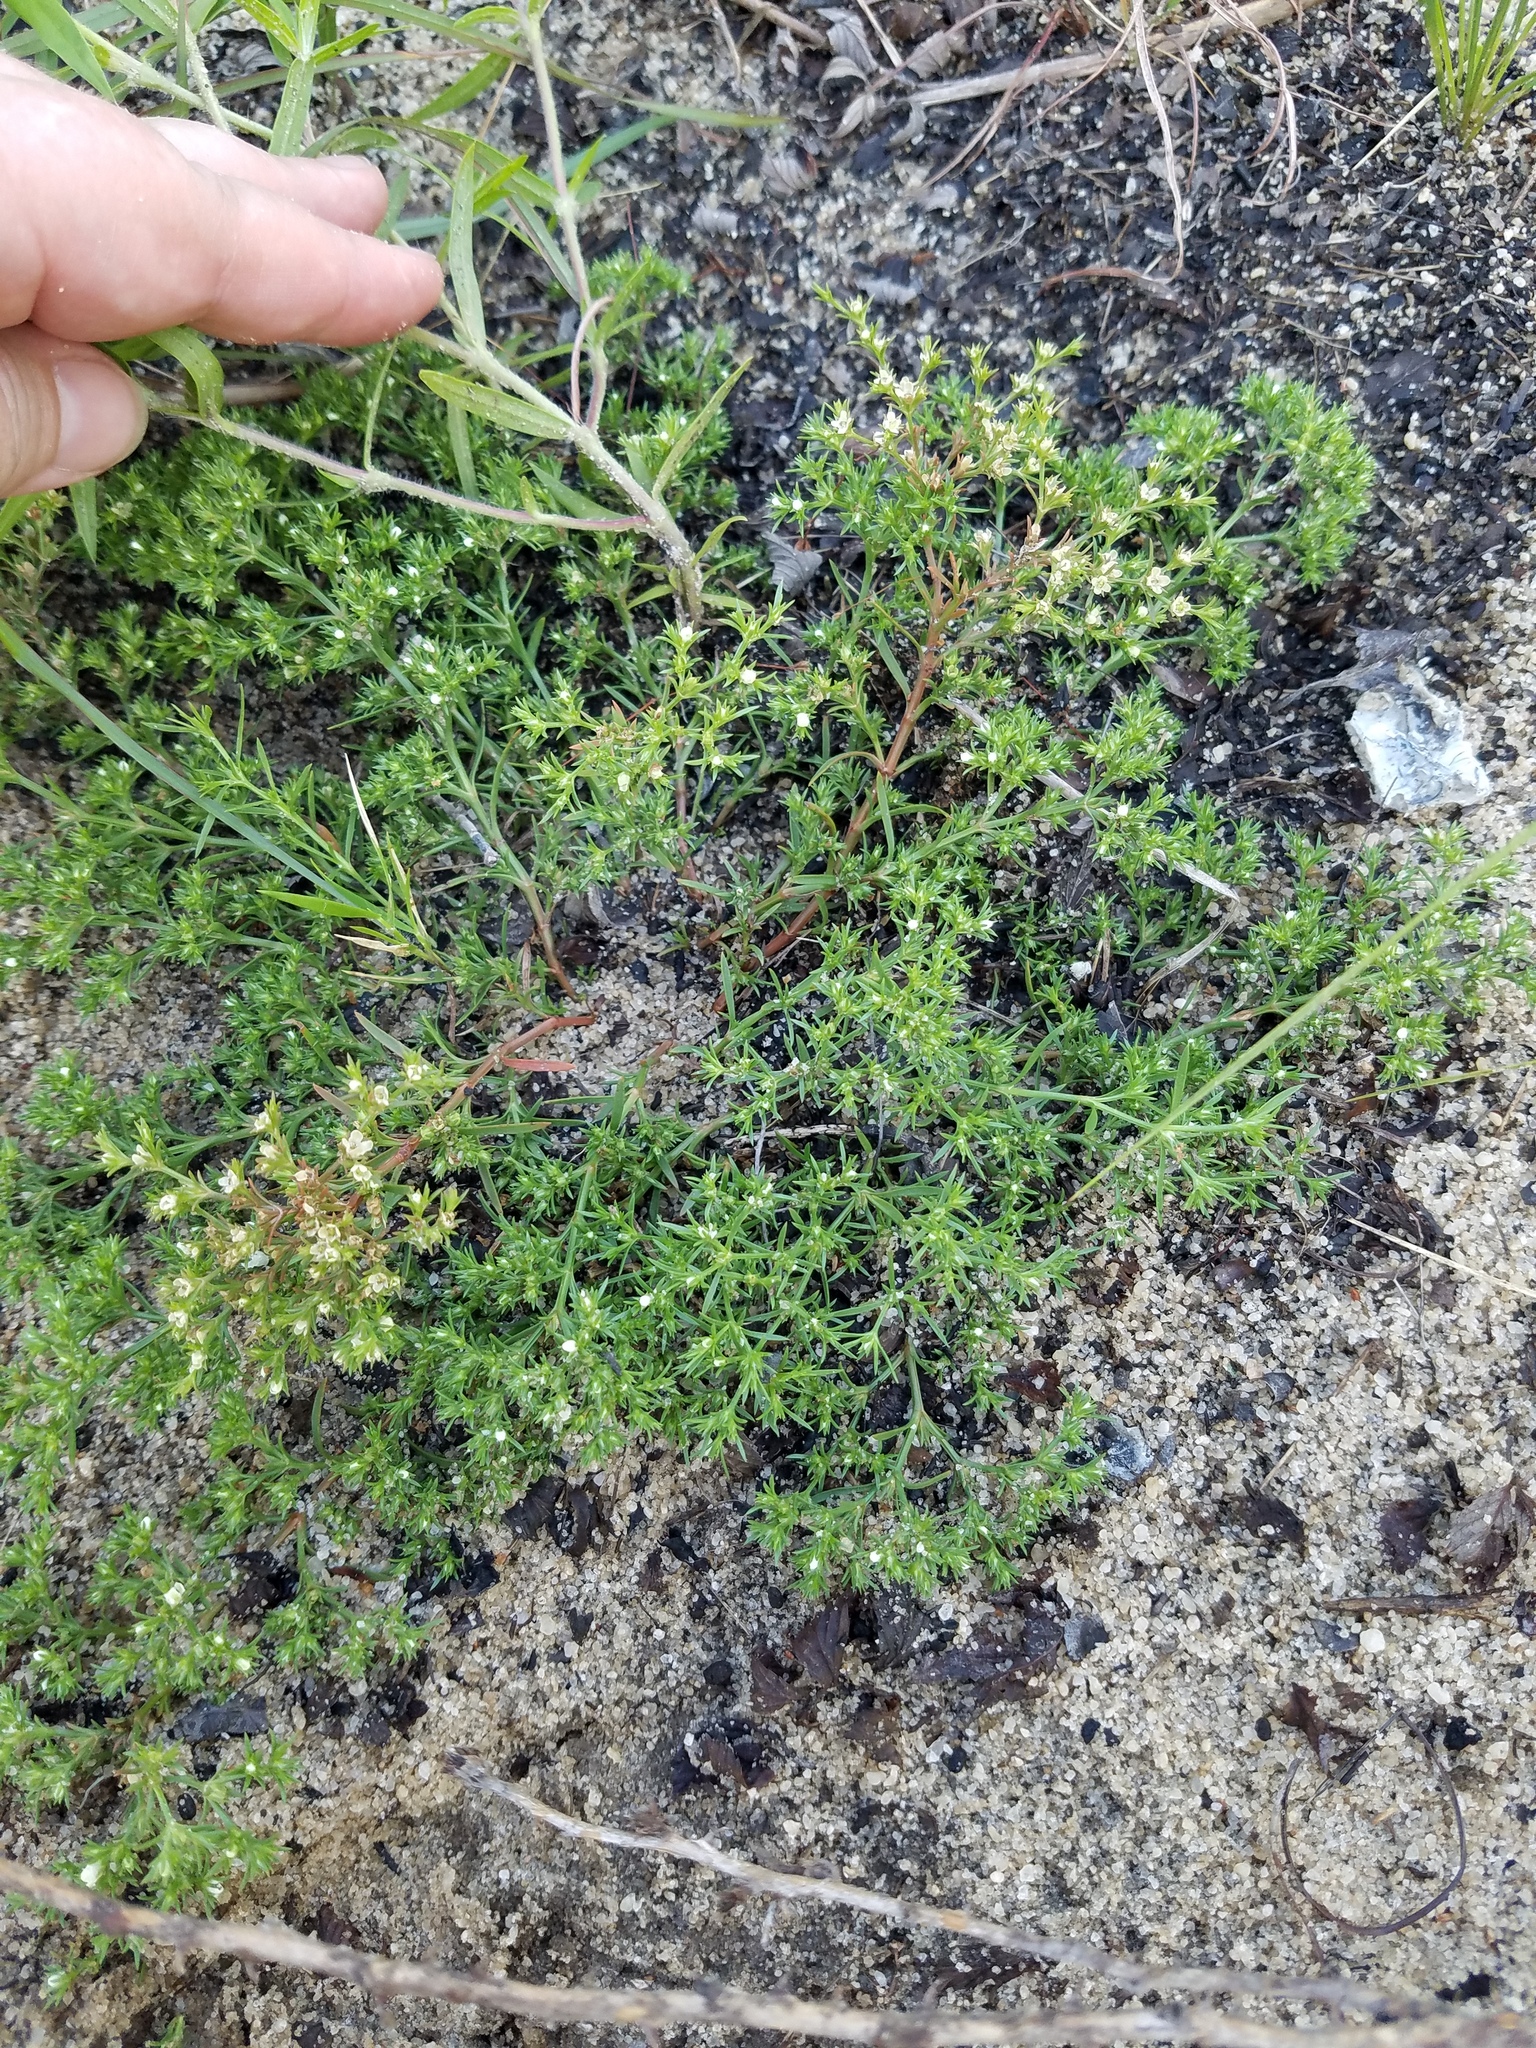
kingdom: Plantae
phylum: Tracheophyta
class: Magnoliopsida
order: Lamiales
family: Tetrachondraceae
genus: Polypremum
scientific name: Polypremum procumbens
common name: Juniper-leaf
